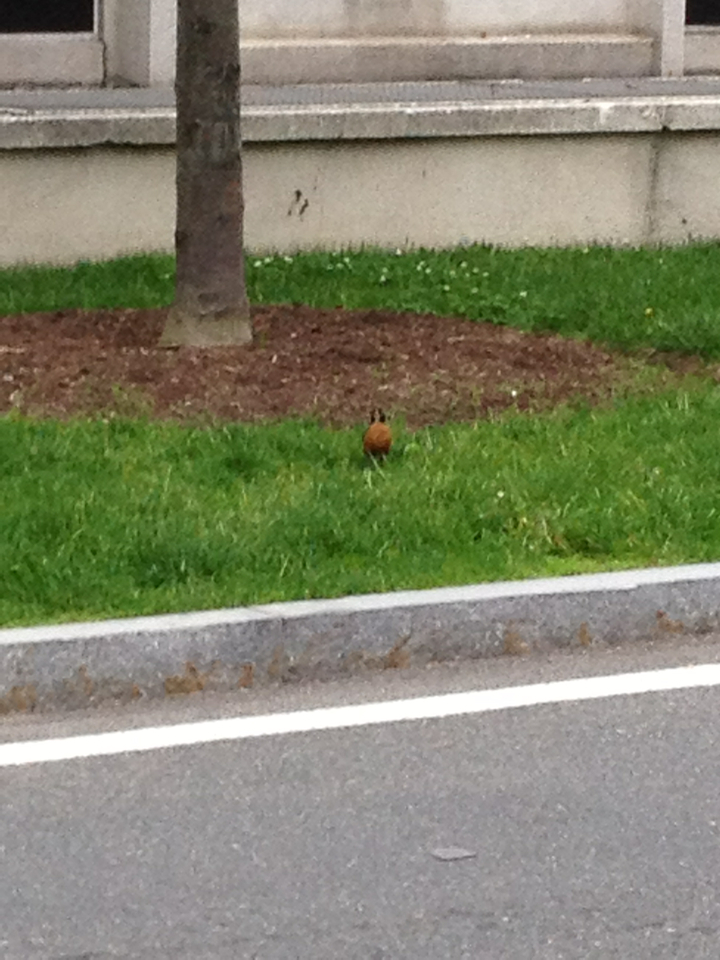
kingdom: Animalia
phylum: Chordata
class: Aves
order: Passeriformes
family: Turdidae
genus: Turdus
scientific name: Turdus migratorius
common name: American robin
